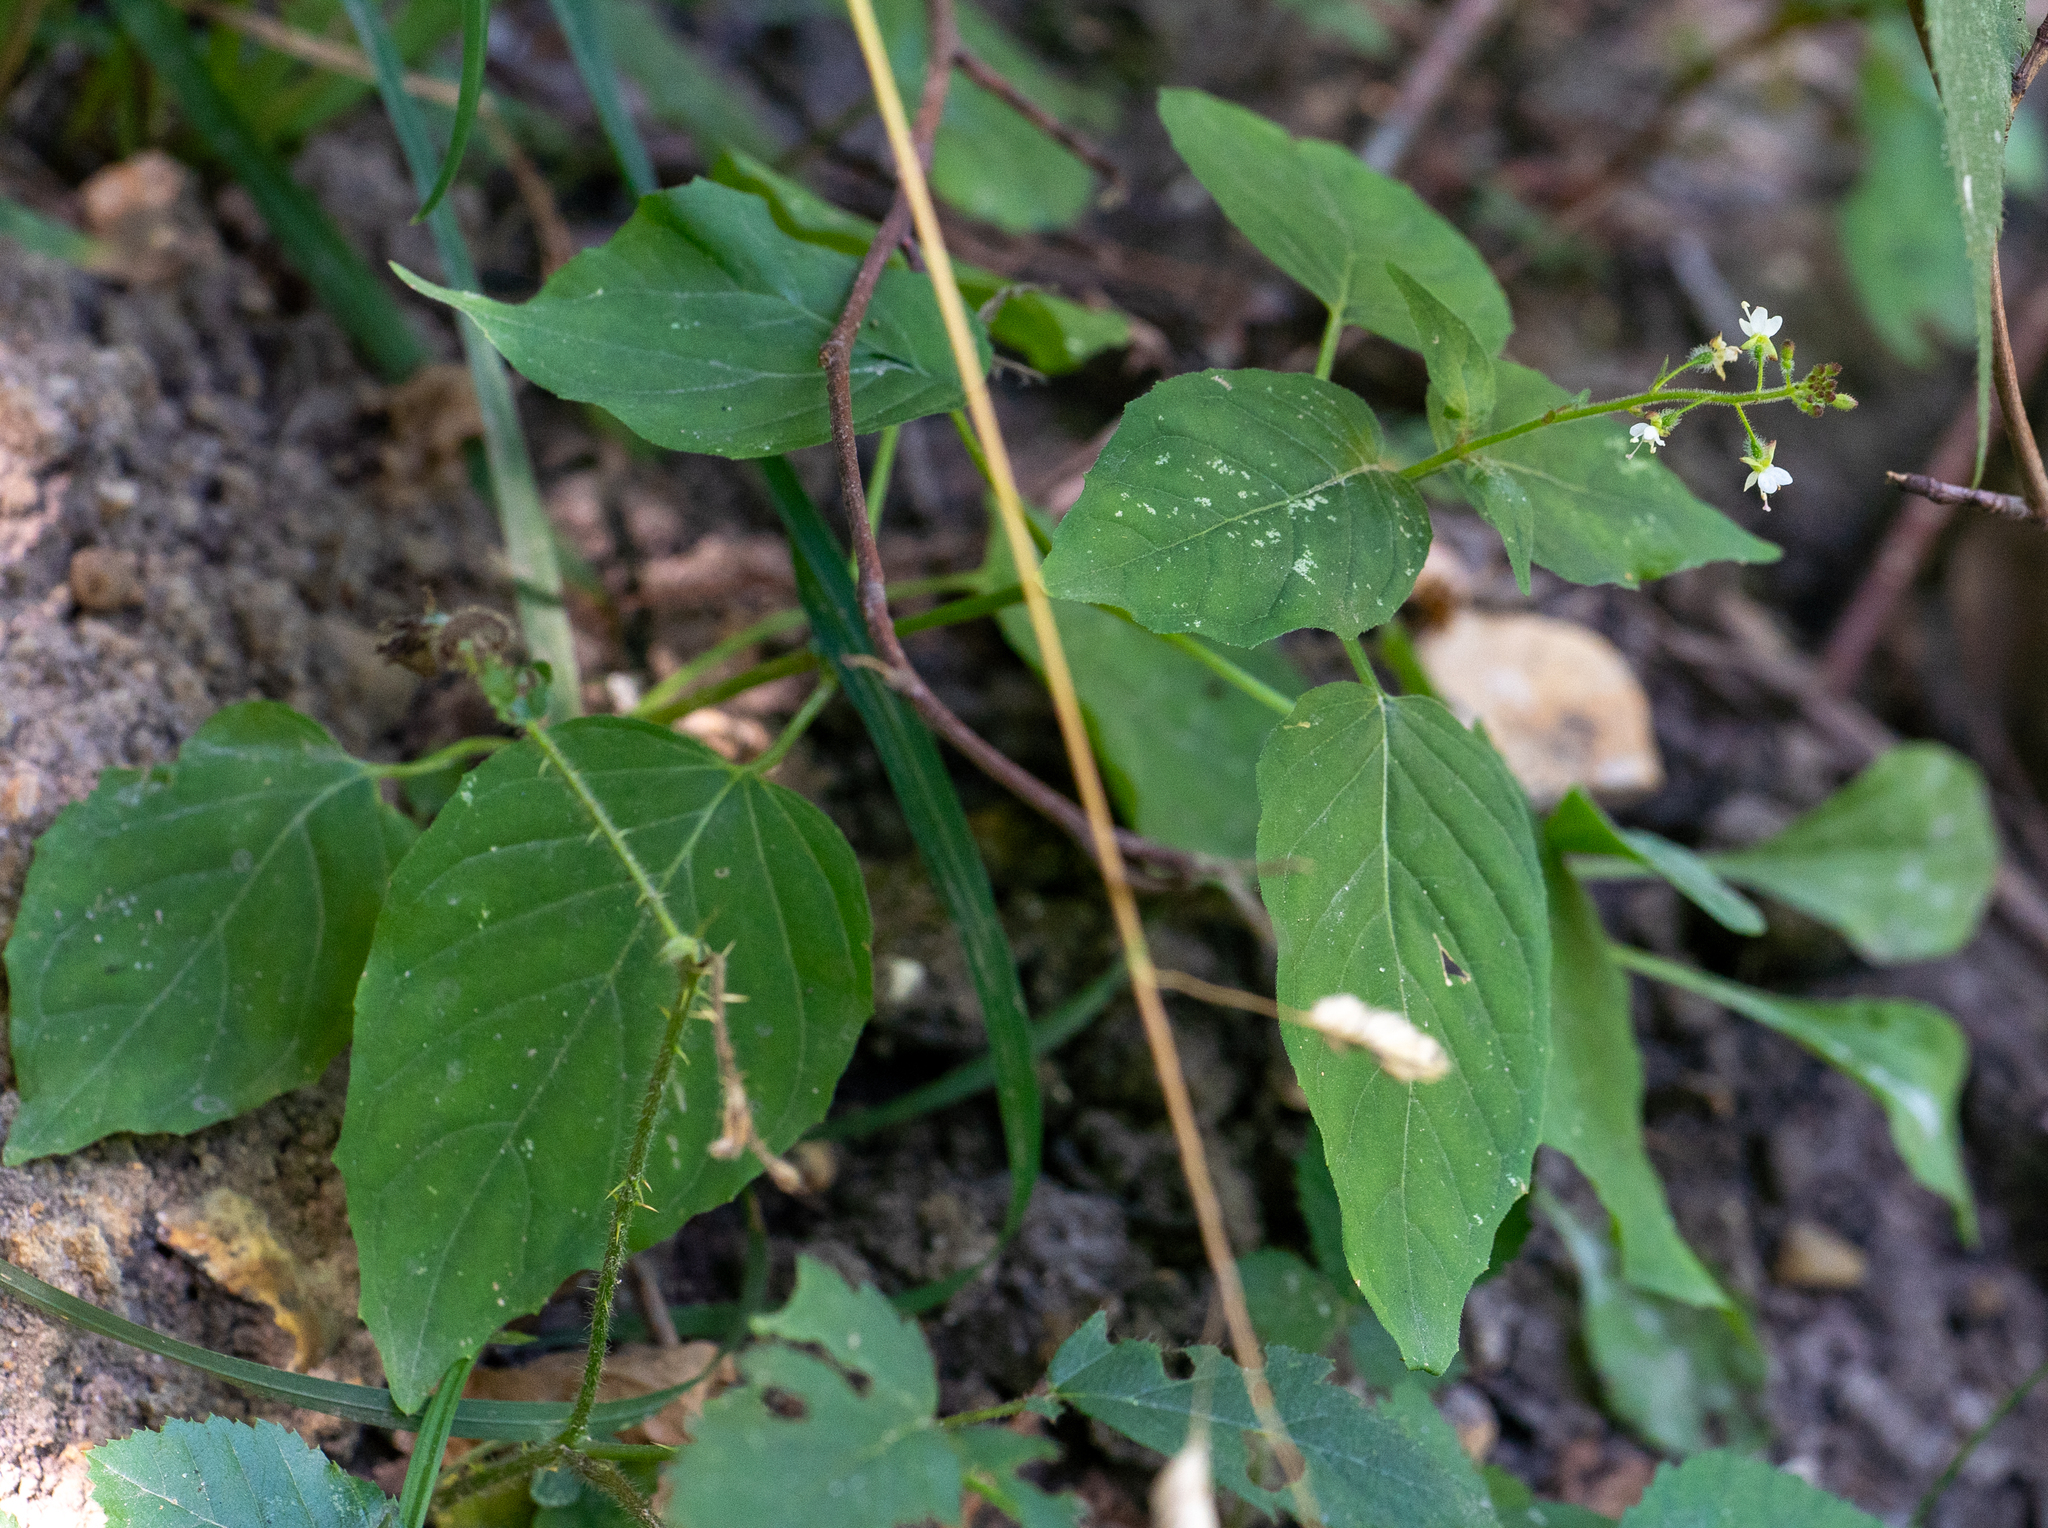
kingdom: Plantae
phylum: Tracheophyta
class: Magnoliopsida
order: Myrtales
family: Onagraceae
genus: Circaea
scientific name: Circaea lutetiana
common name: Enchanter's-nightshade
